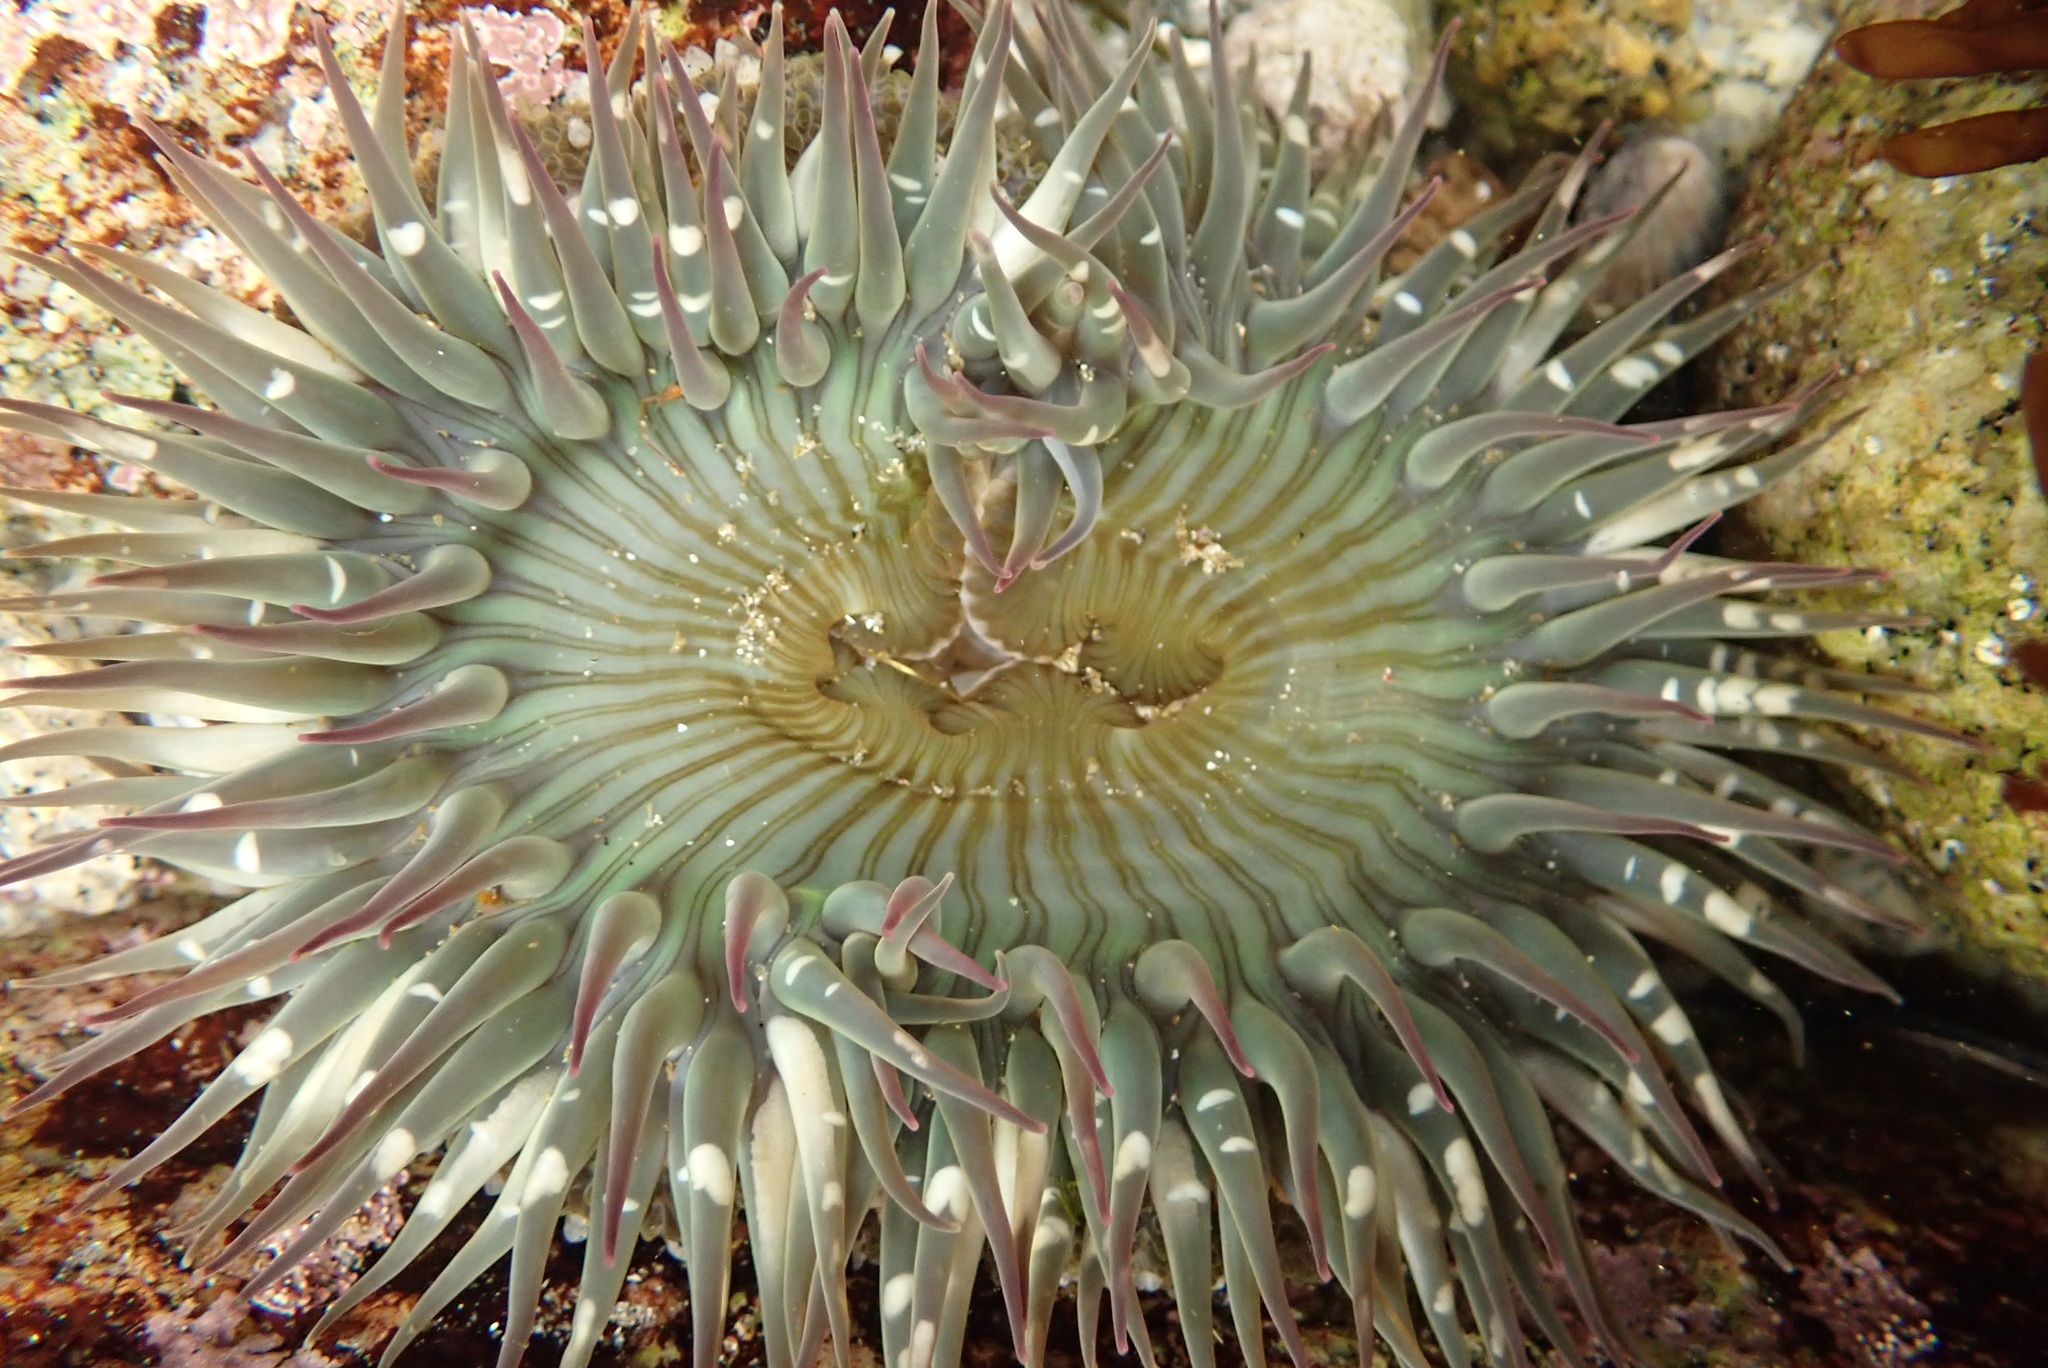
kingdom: Animalia
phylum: Cnidaria
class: Anthozoa
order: Actiniaria
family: Actiniidae
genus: Anthopleura
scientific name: Anthopleura sola
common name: Sun anemone
